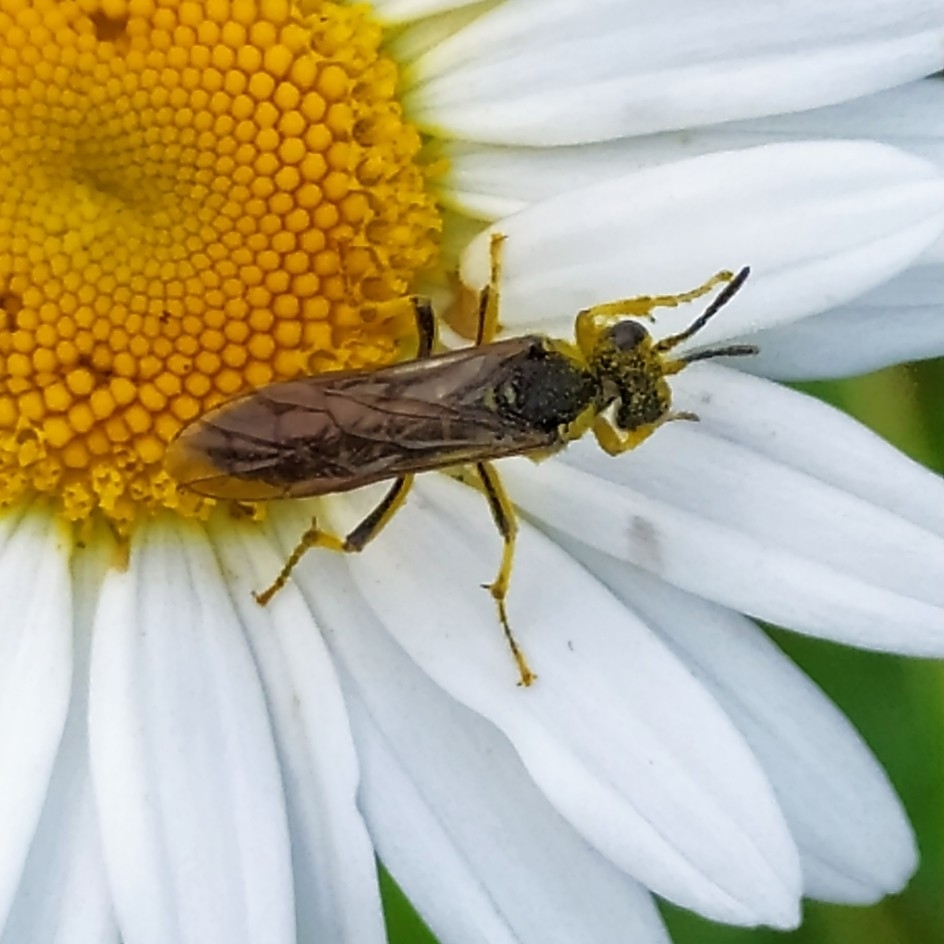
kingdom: Animalia
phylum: Arthropoda
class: Insecta
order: Hymenoptera
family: Tenthredinidae
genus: Tenthredo
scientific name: Tenthredo arcuata
